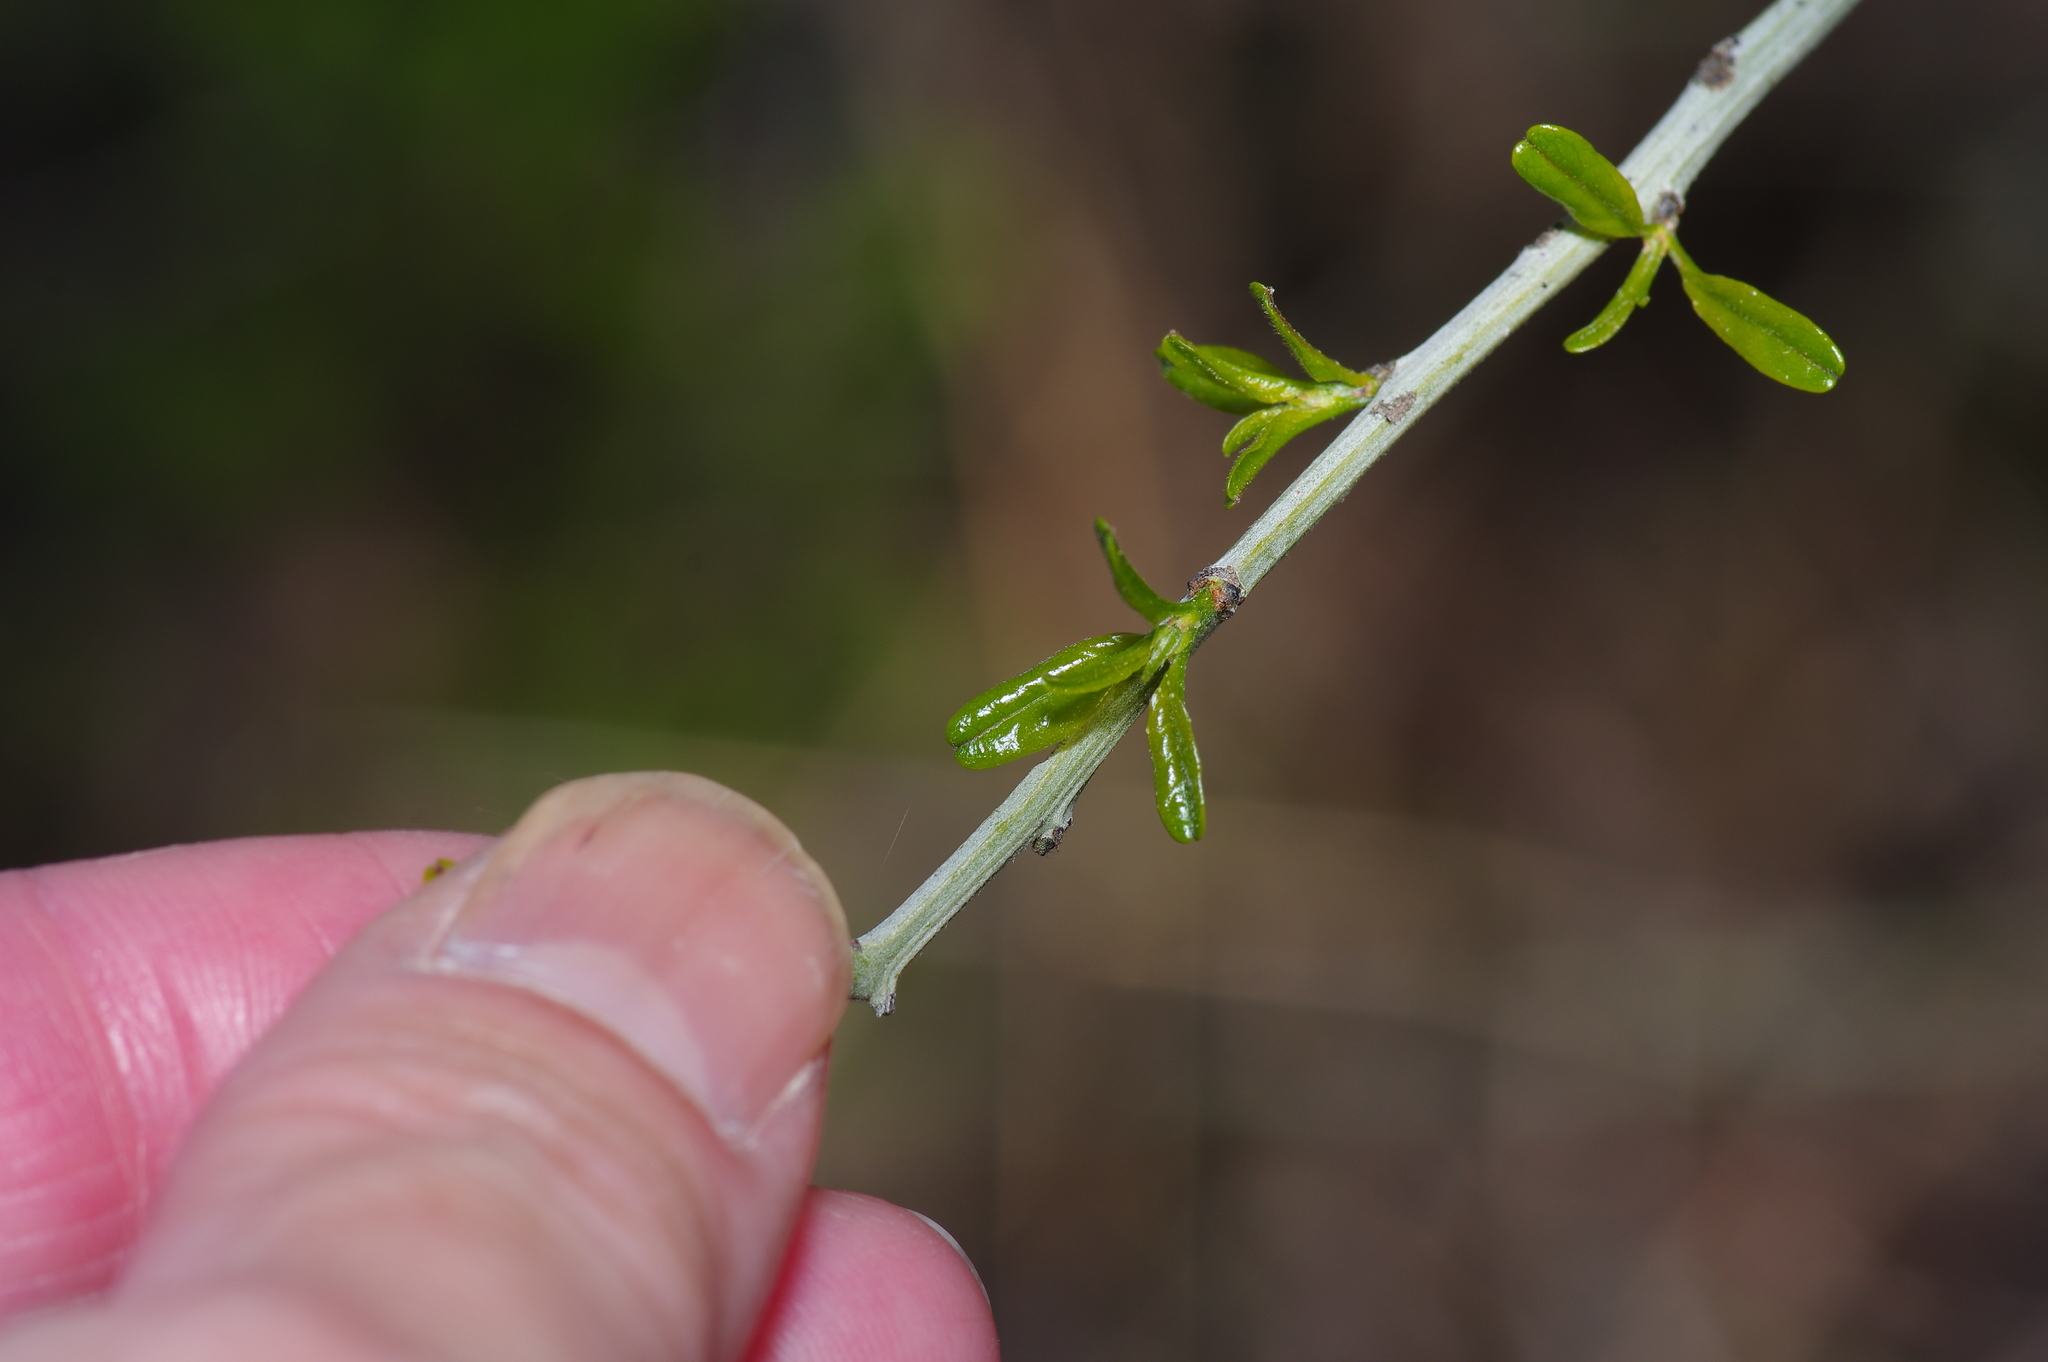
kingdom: Plantae
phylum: Tracheophyta
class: Magnoliopsida
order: Rosales
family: Rhamnaceae
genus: Sarcomphalus
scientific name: Sarcomphalus obtusifolius
